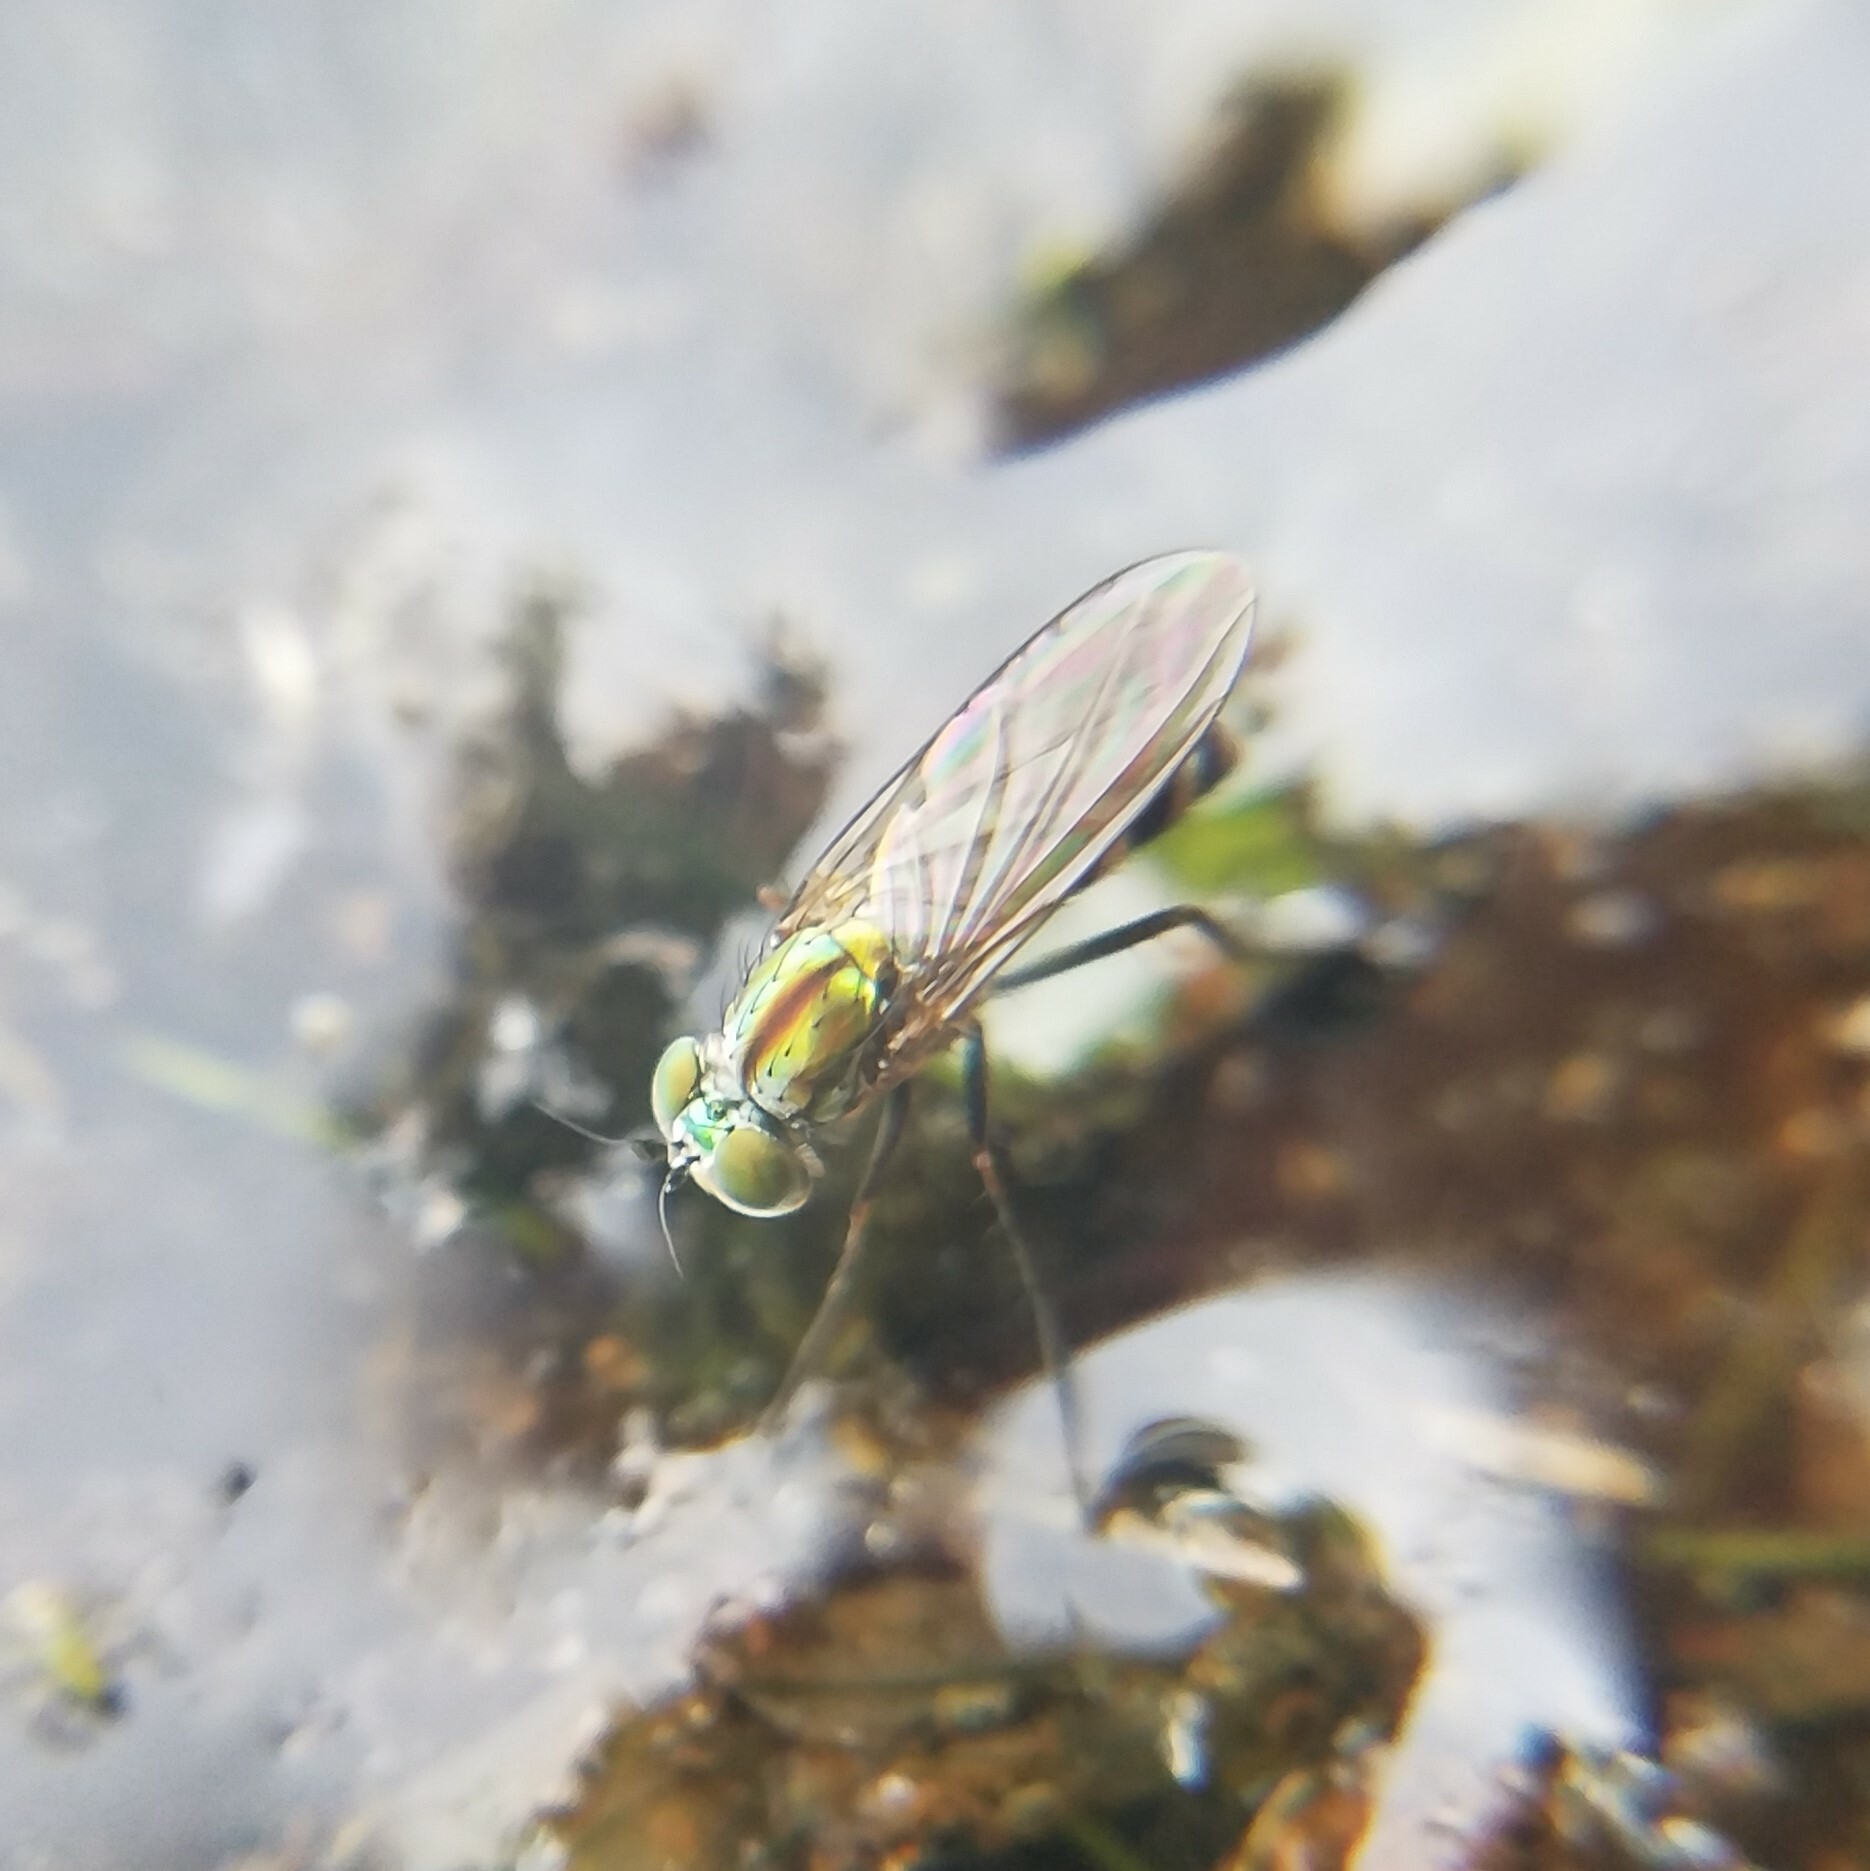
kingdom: Animalia
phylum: Arthropoda
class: Insecta
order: Diptera
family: Dolichopodidae
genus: Plagioneurus
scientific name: Plagioneurus univittatus
